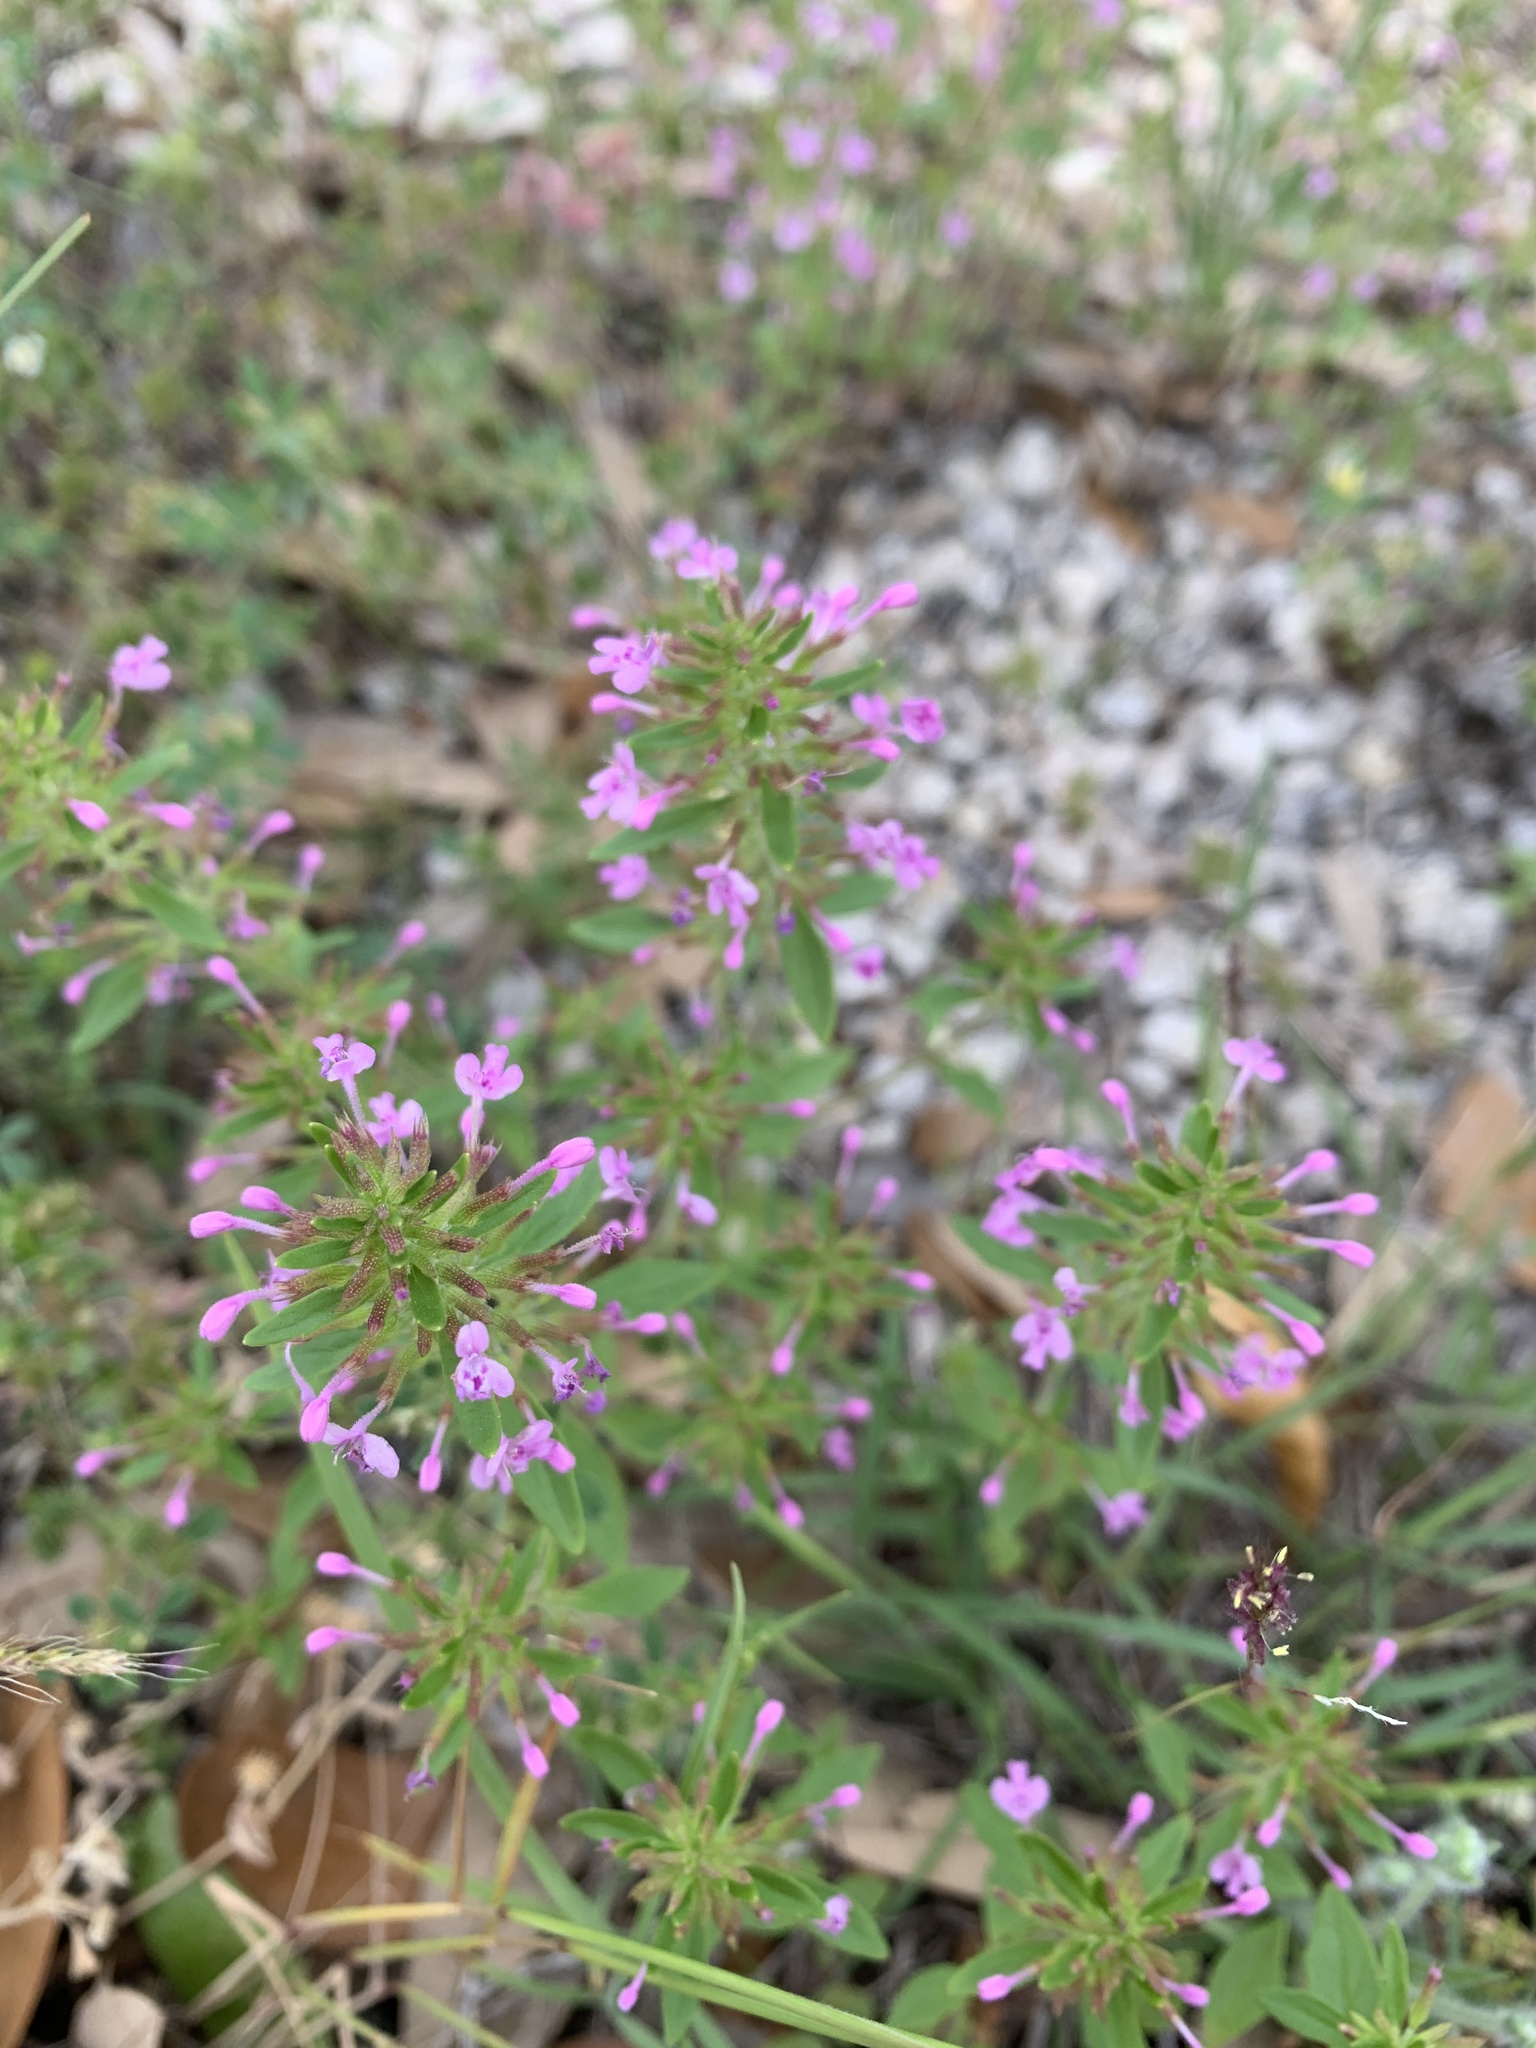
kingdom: Plantae
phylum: Tracheophyta
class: Magnoliopsida
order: Lamiales
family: Lamiaceae
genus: Hedeoma
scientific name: Hedeoma acinoides
